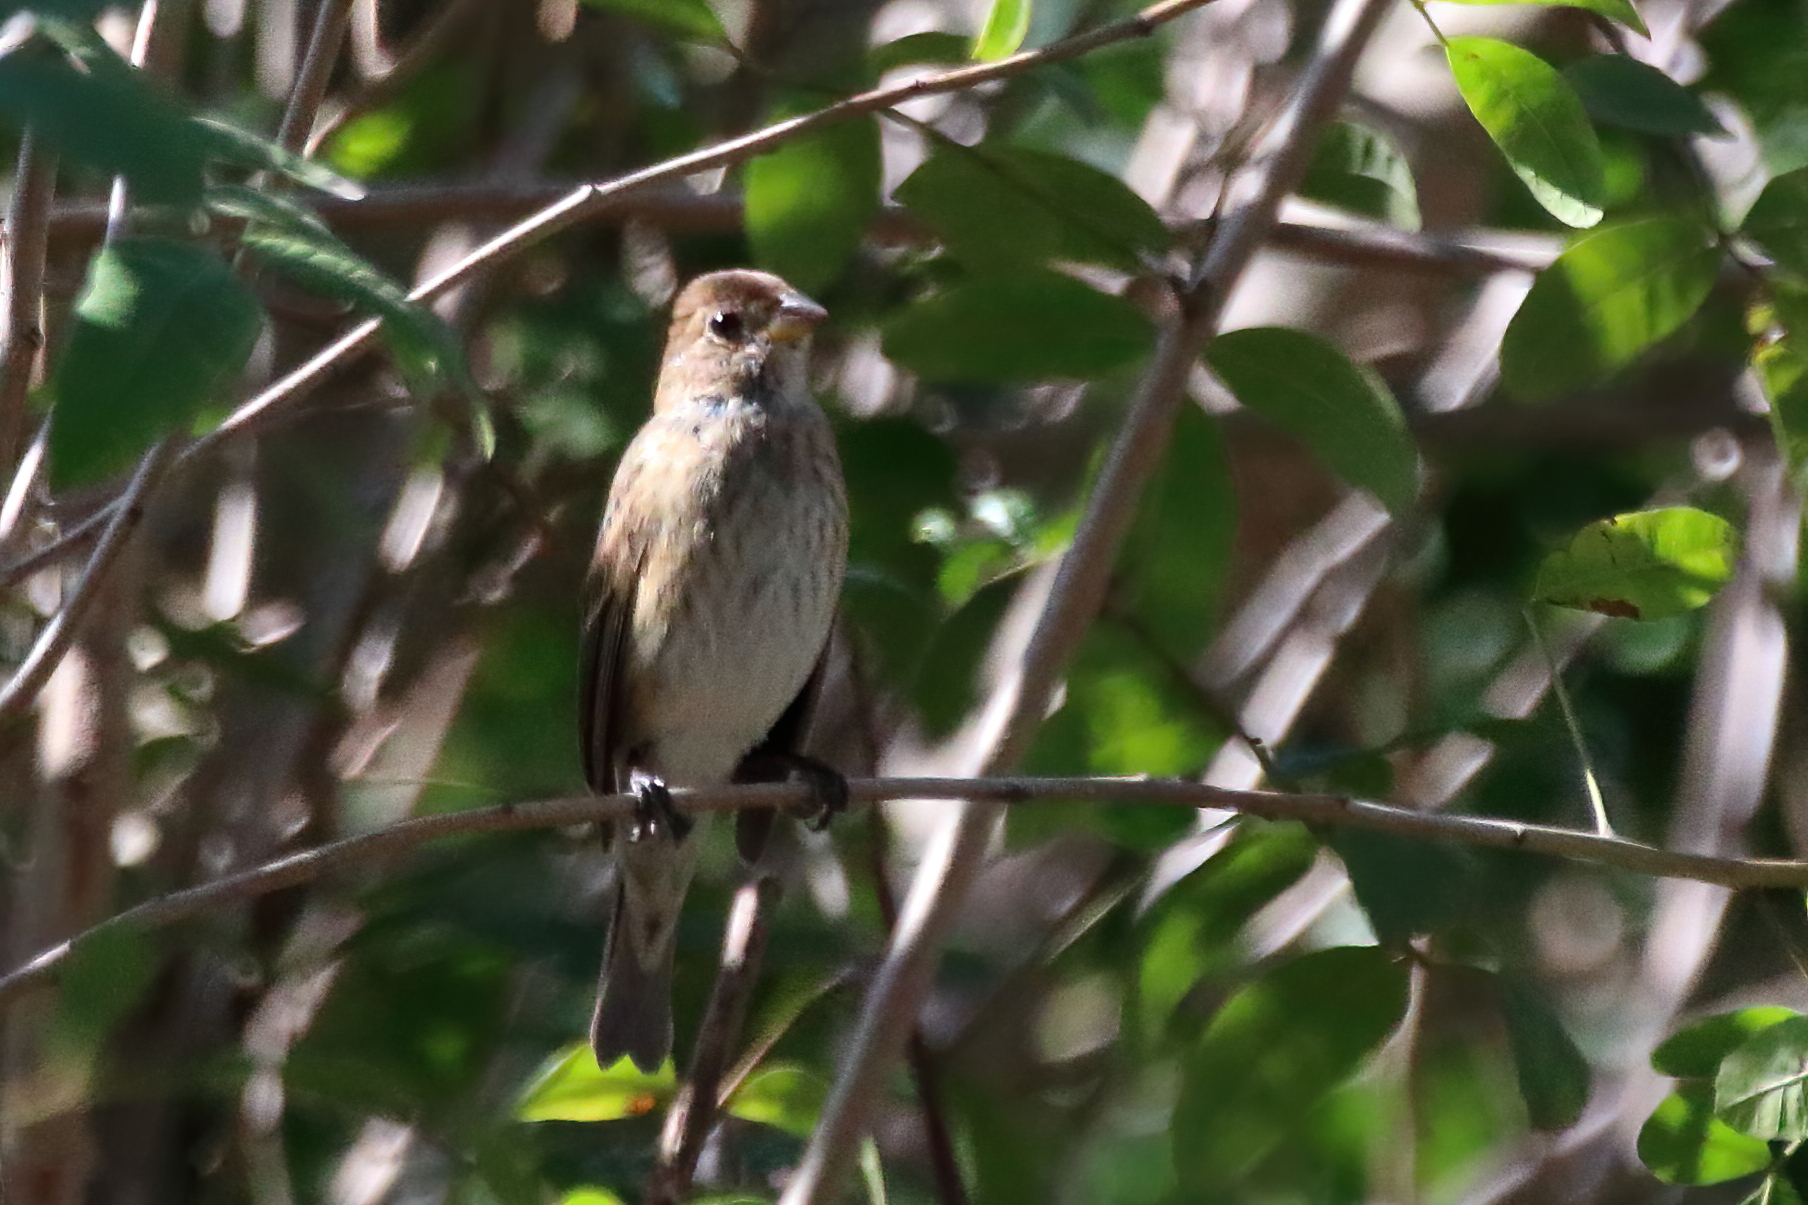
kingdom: Animalia
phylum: Chordata
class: Aves
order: Passeriformes
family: Cardinalidae
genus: Passerina
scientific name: Passerina cyanea
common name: Indigo bunting
